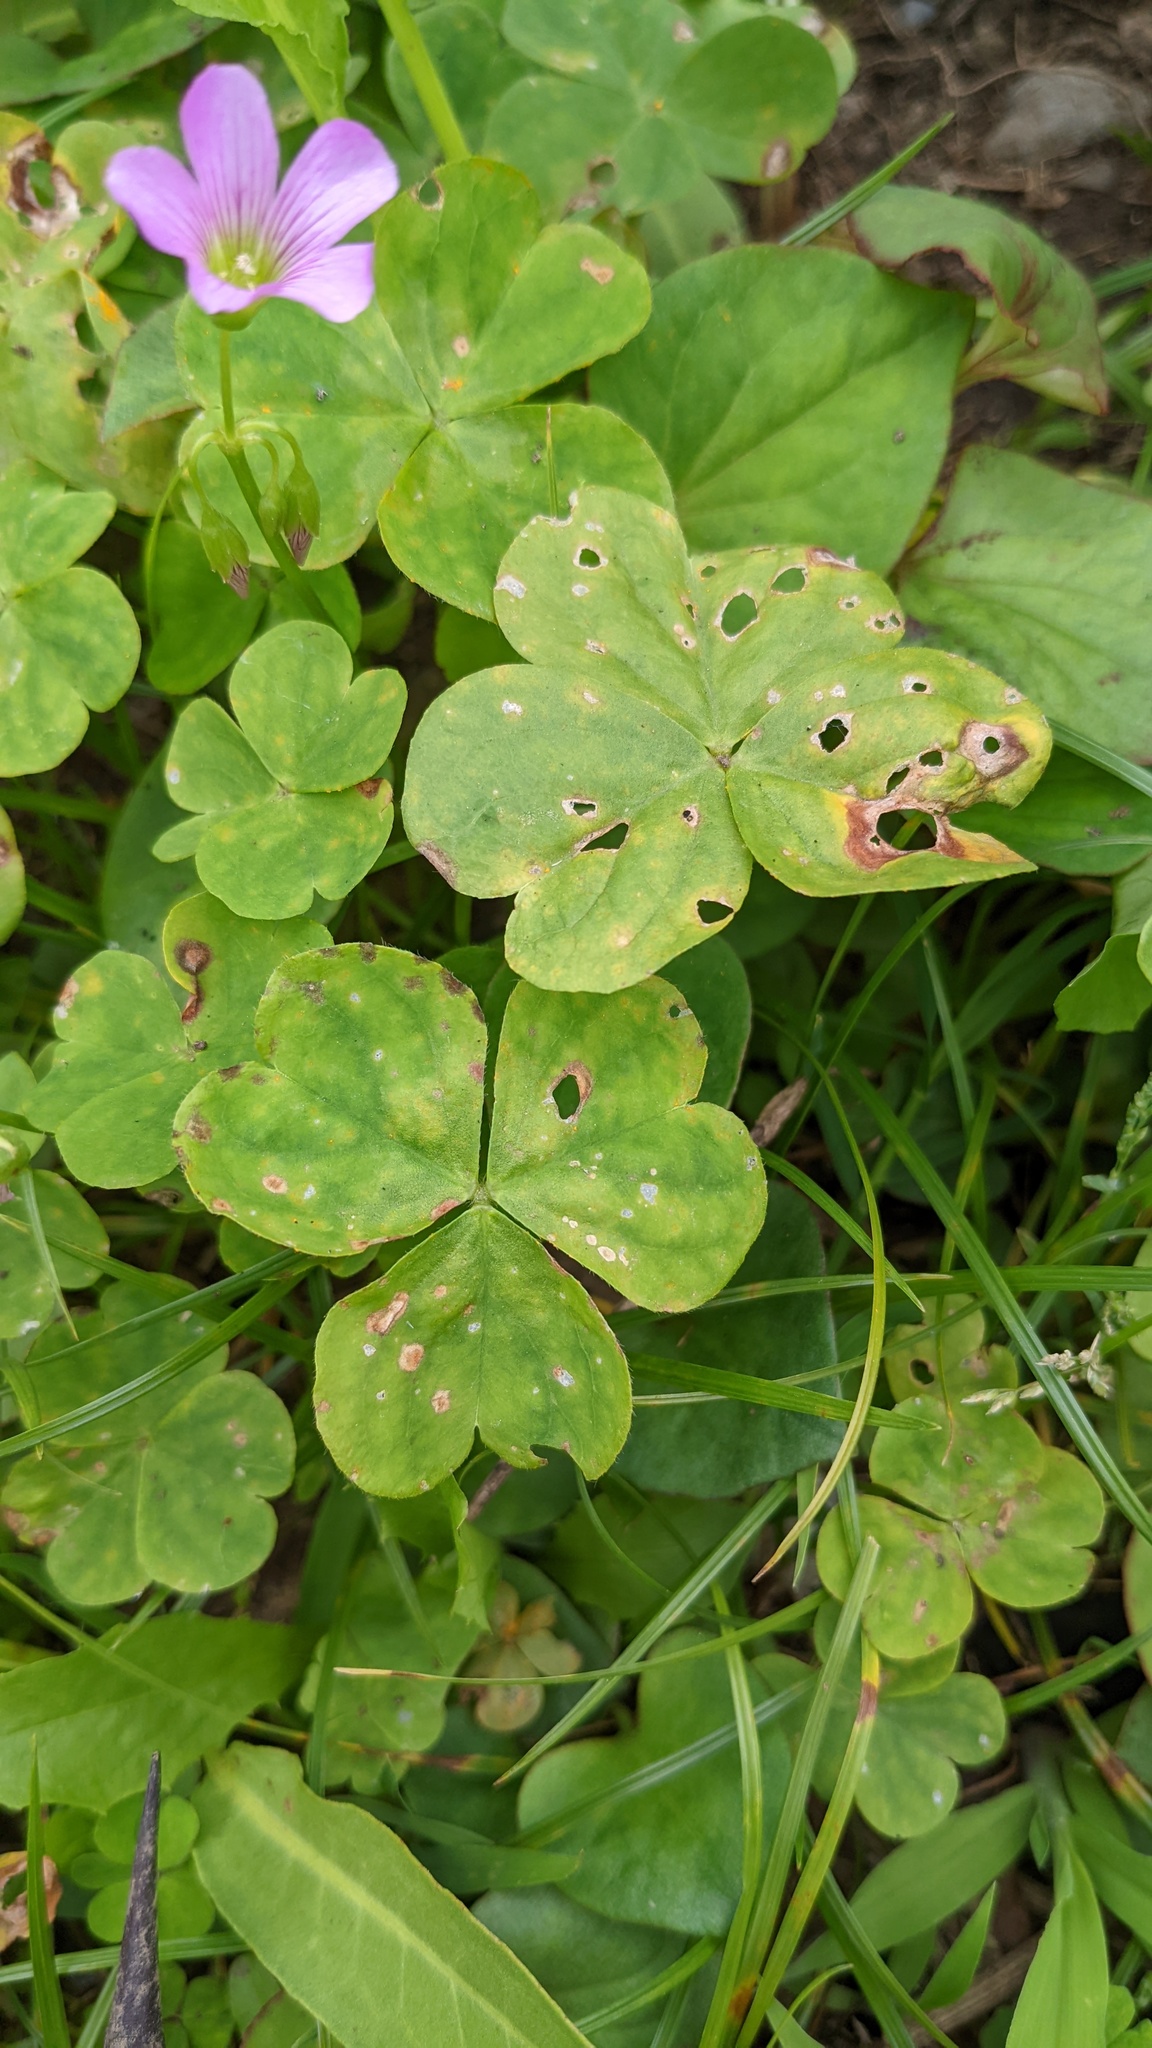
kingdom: Fungi
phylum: Basidiomycota
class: Pucciniomycetes
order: Pucciniales
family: Pucciniaceae
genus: Puccinia
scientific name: Puccinia oxalidis
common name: Oxalis rust
